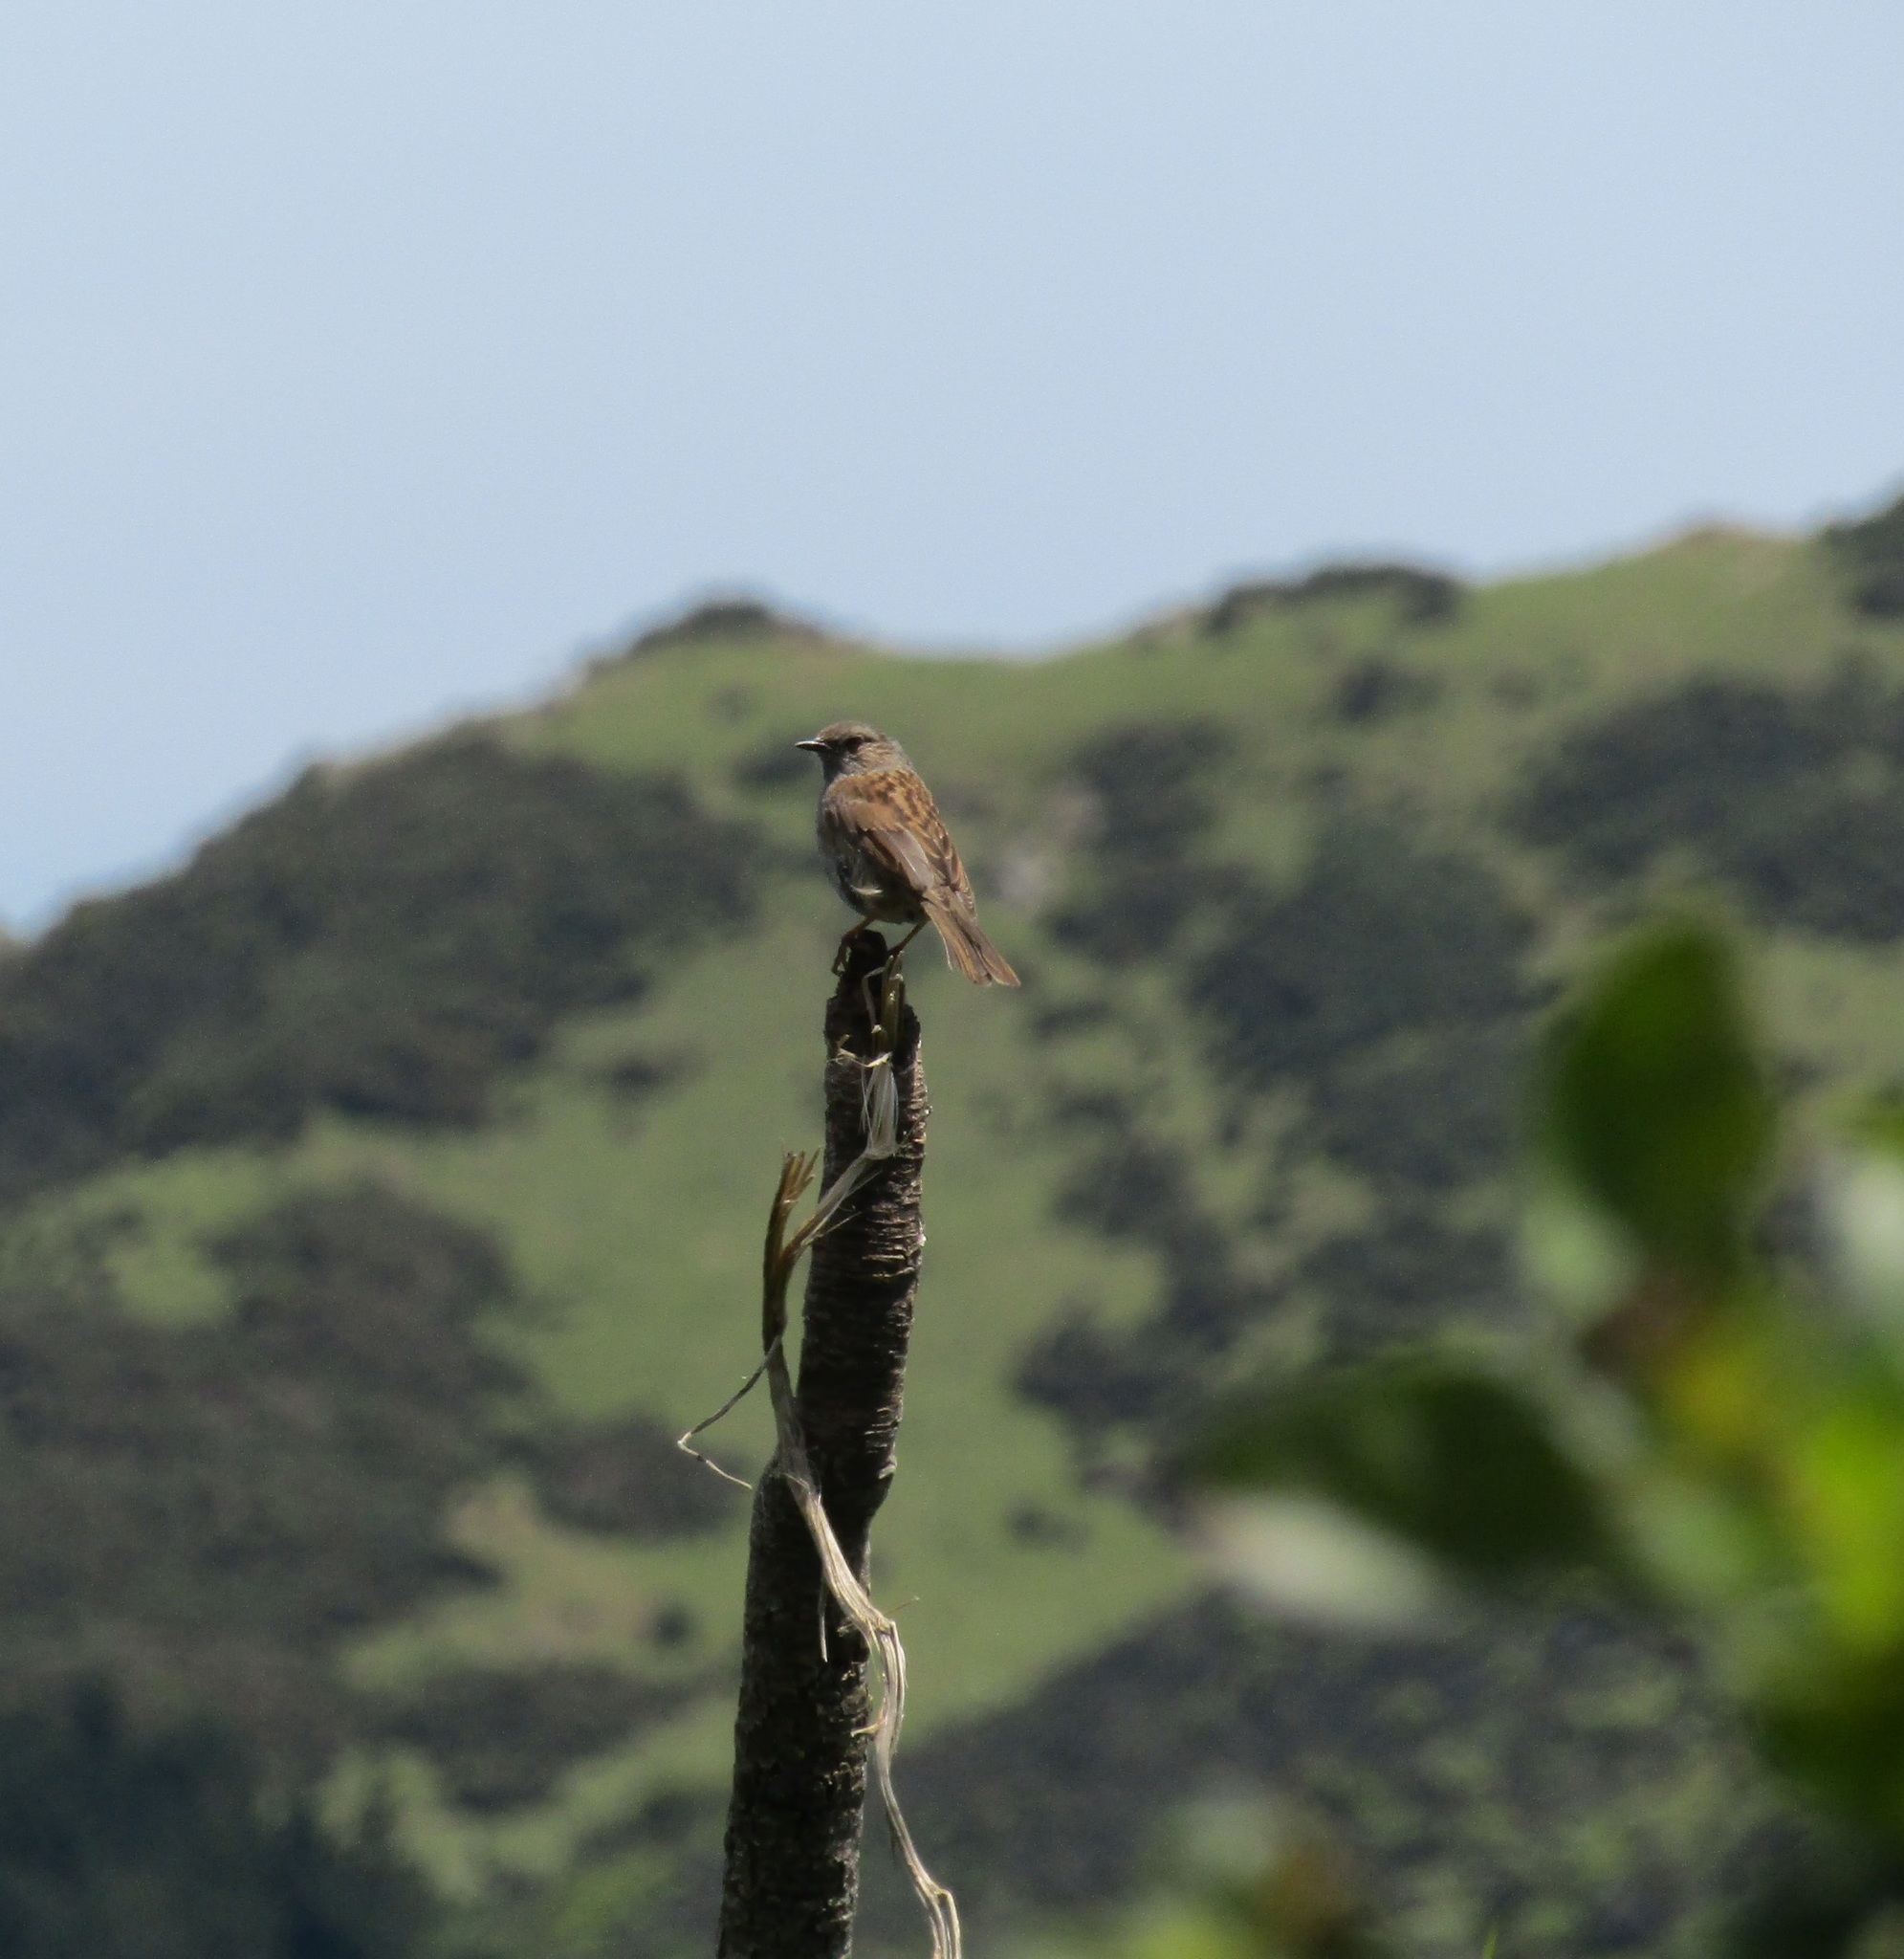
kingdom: Animalia
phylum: Chordata
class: Aves
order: Passeriformes
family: Prunellidae
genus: Prunella
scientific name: Prunella modularis
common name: Dunnock
